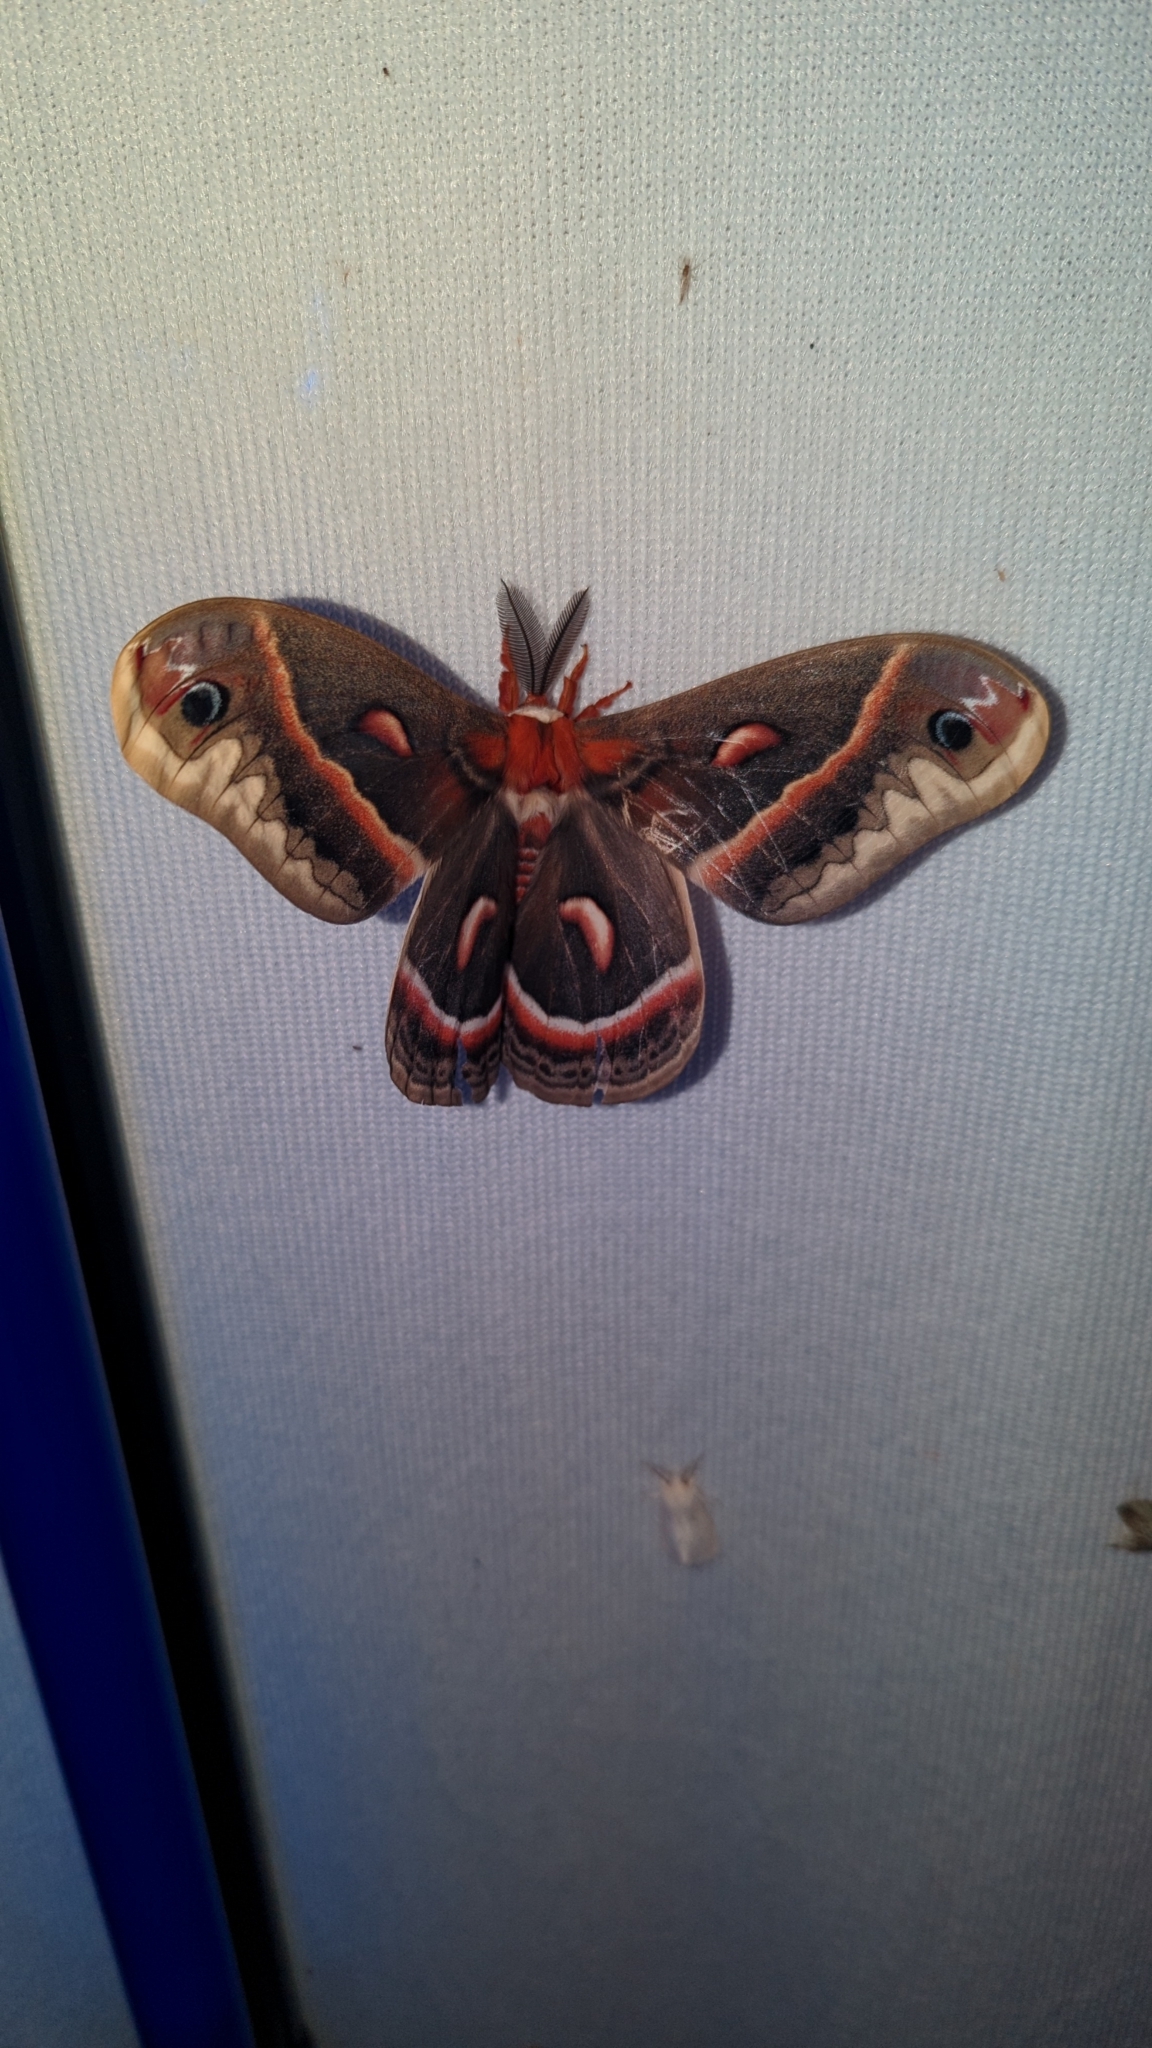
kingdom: Animalia
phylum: Arthropoda
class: Insecta
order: Lepidoptera
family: Saturniidae
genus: Hyalophora
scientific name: Hyalophora cecropia
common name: Cecropia silkmoth
